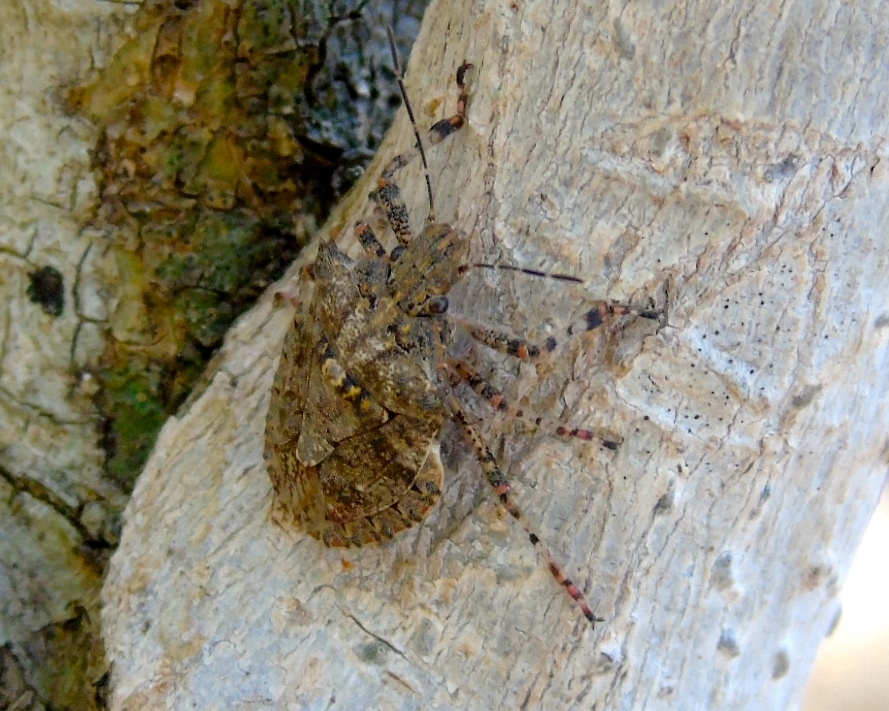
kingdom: Animalia
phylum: Arthropoda
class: Insecta
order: Hemiptera
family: Pentatomidae
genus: Brochymena
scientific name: Brochymena
